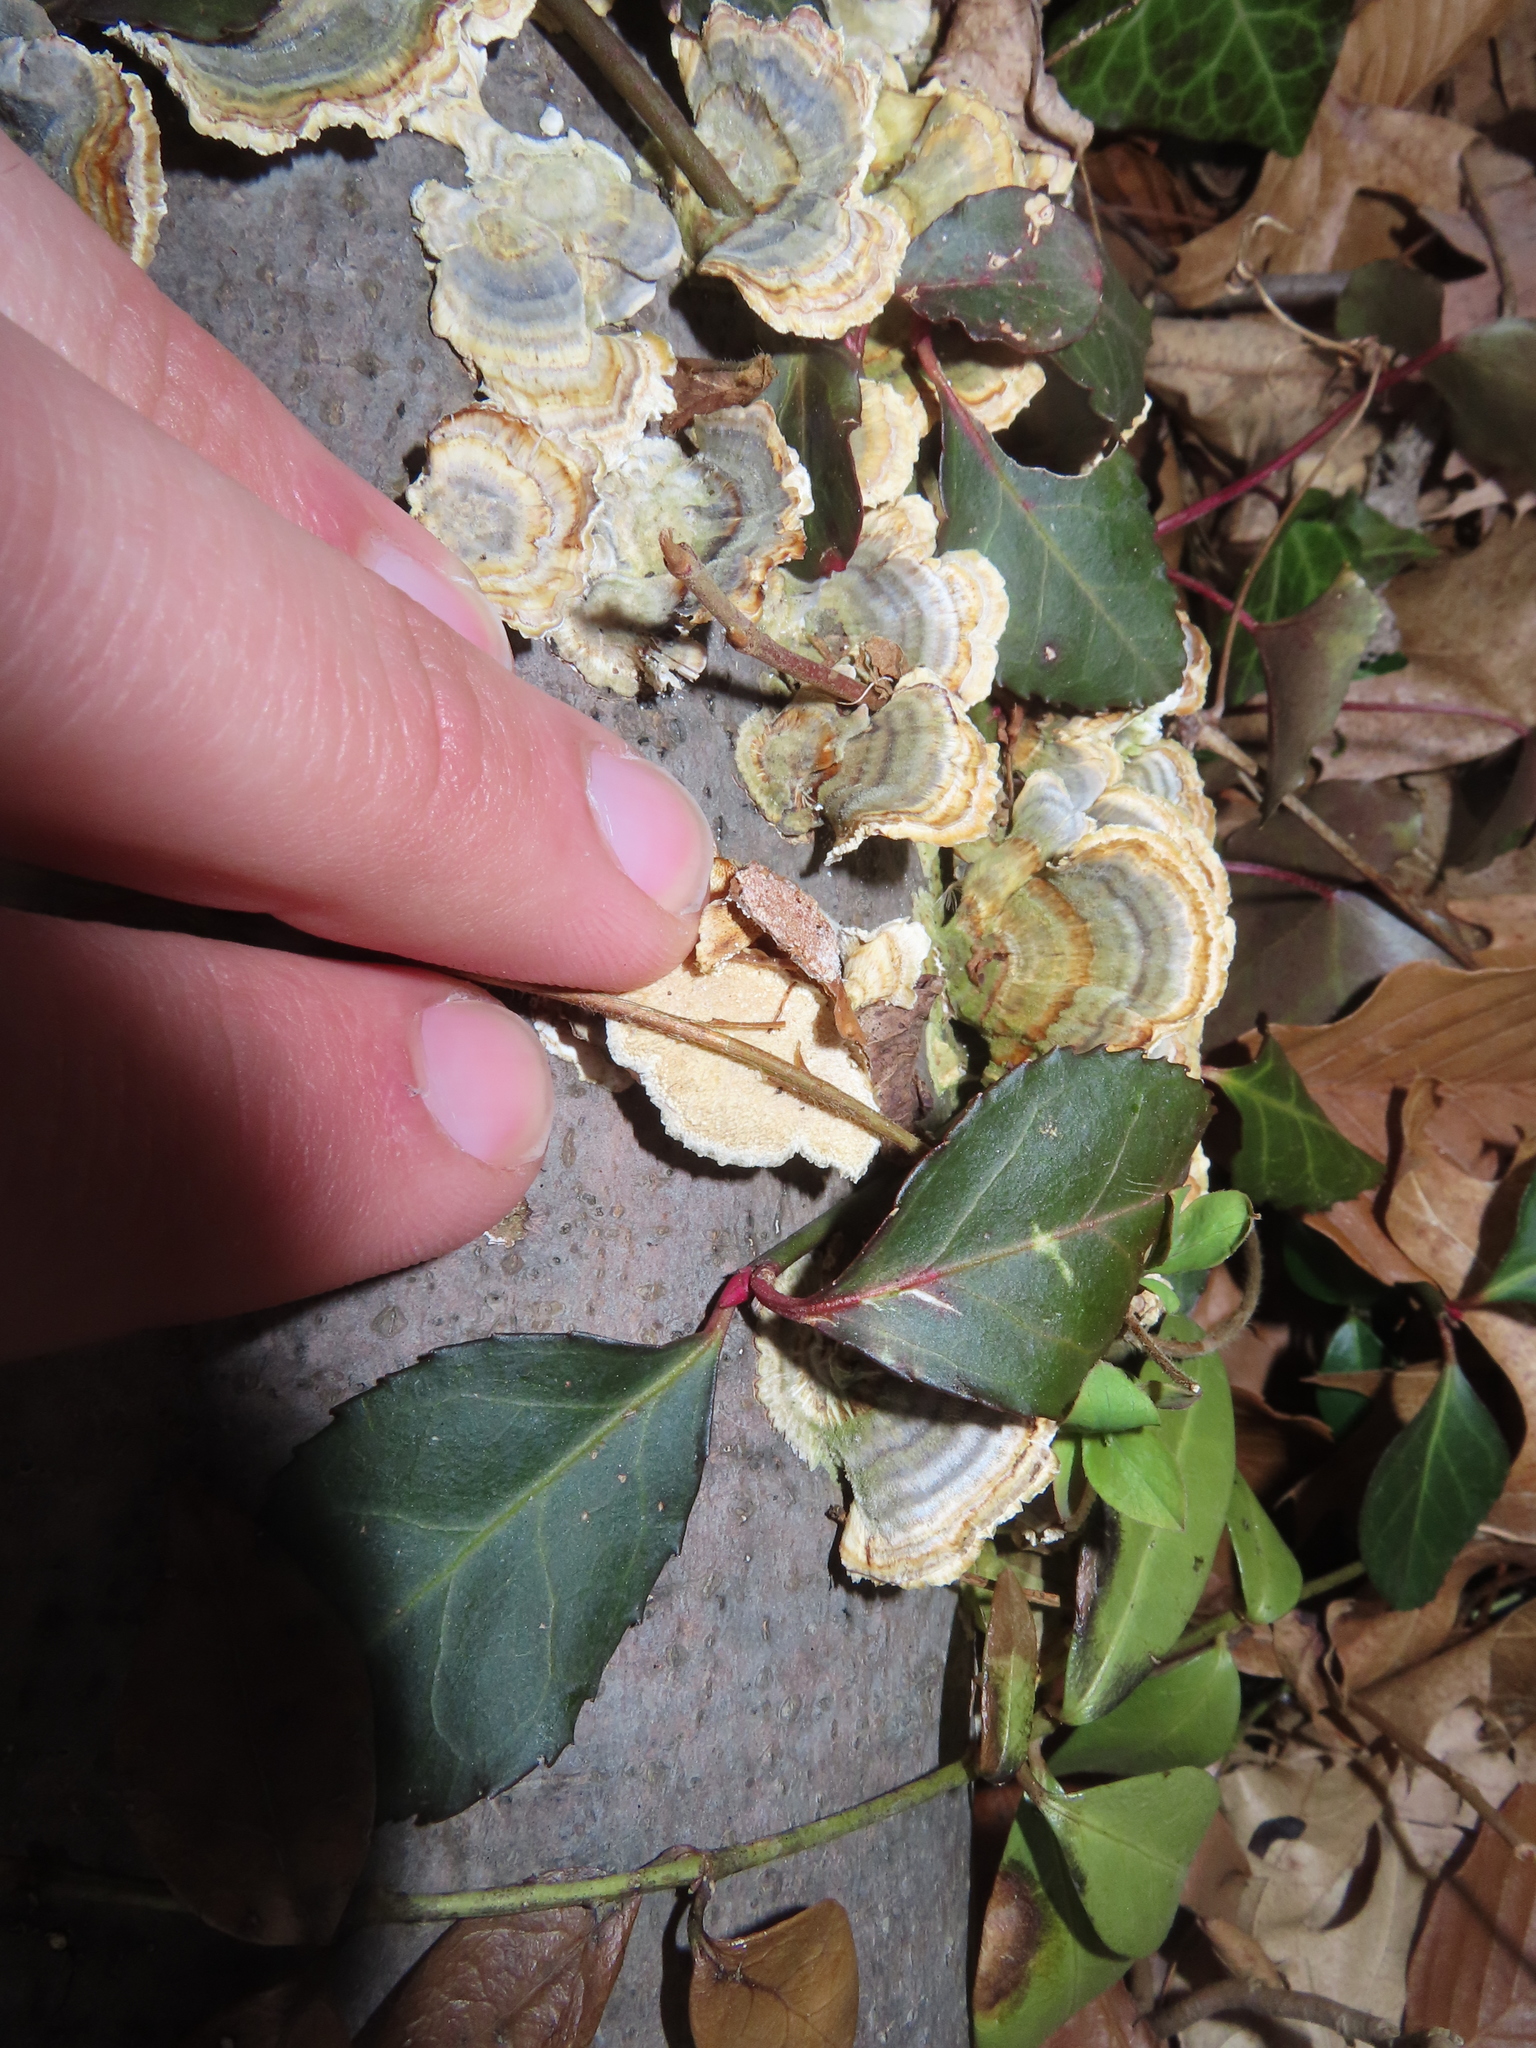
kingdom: Fungi
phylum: Basidiomycota
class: Agaricomycetes
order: Polyporales
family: Polyporaceae
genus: Trametes
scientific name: Trametes versicolor
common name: Turkeytail
